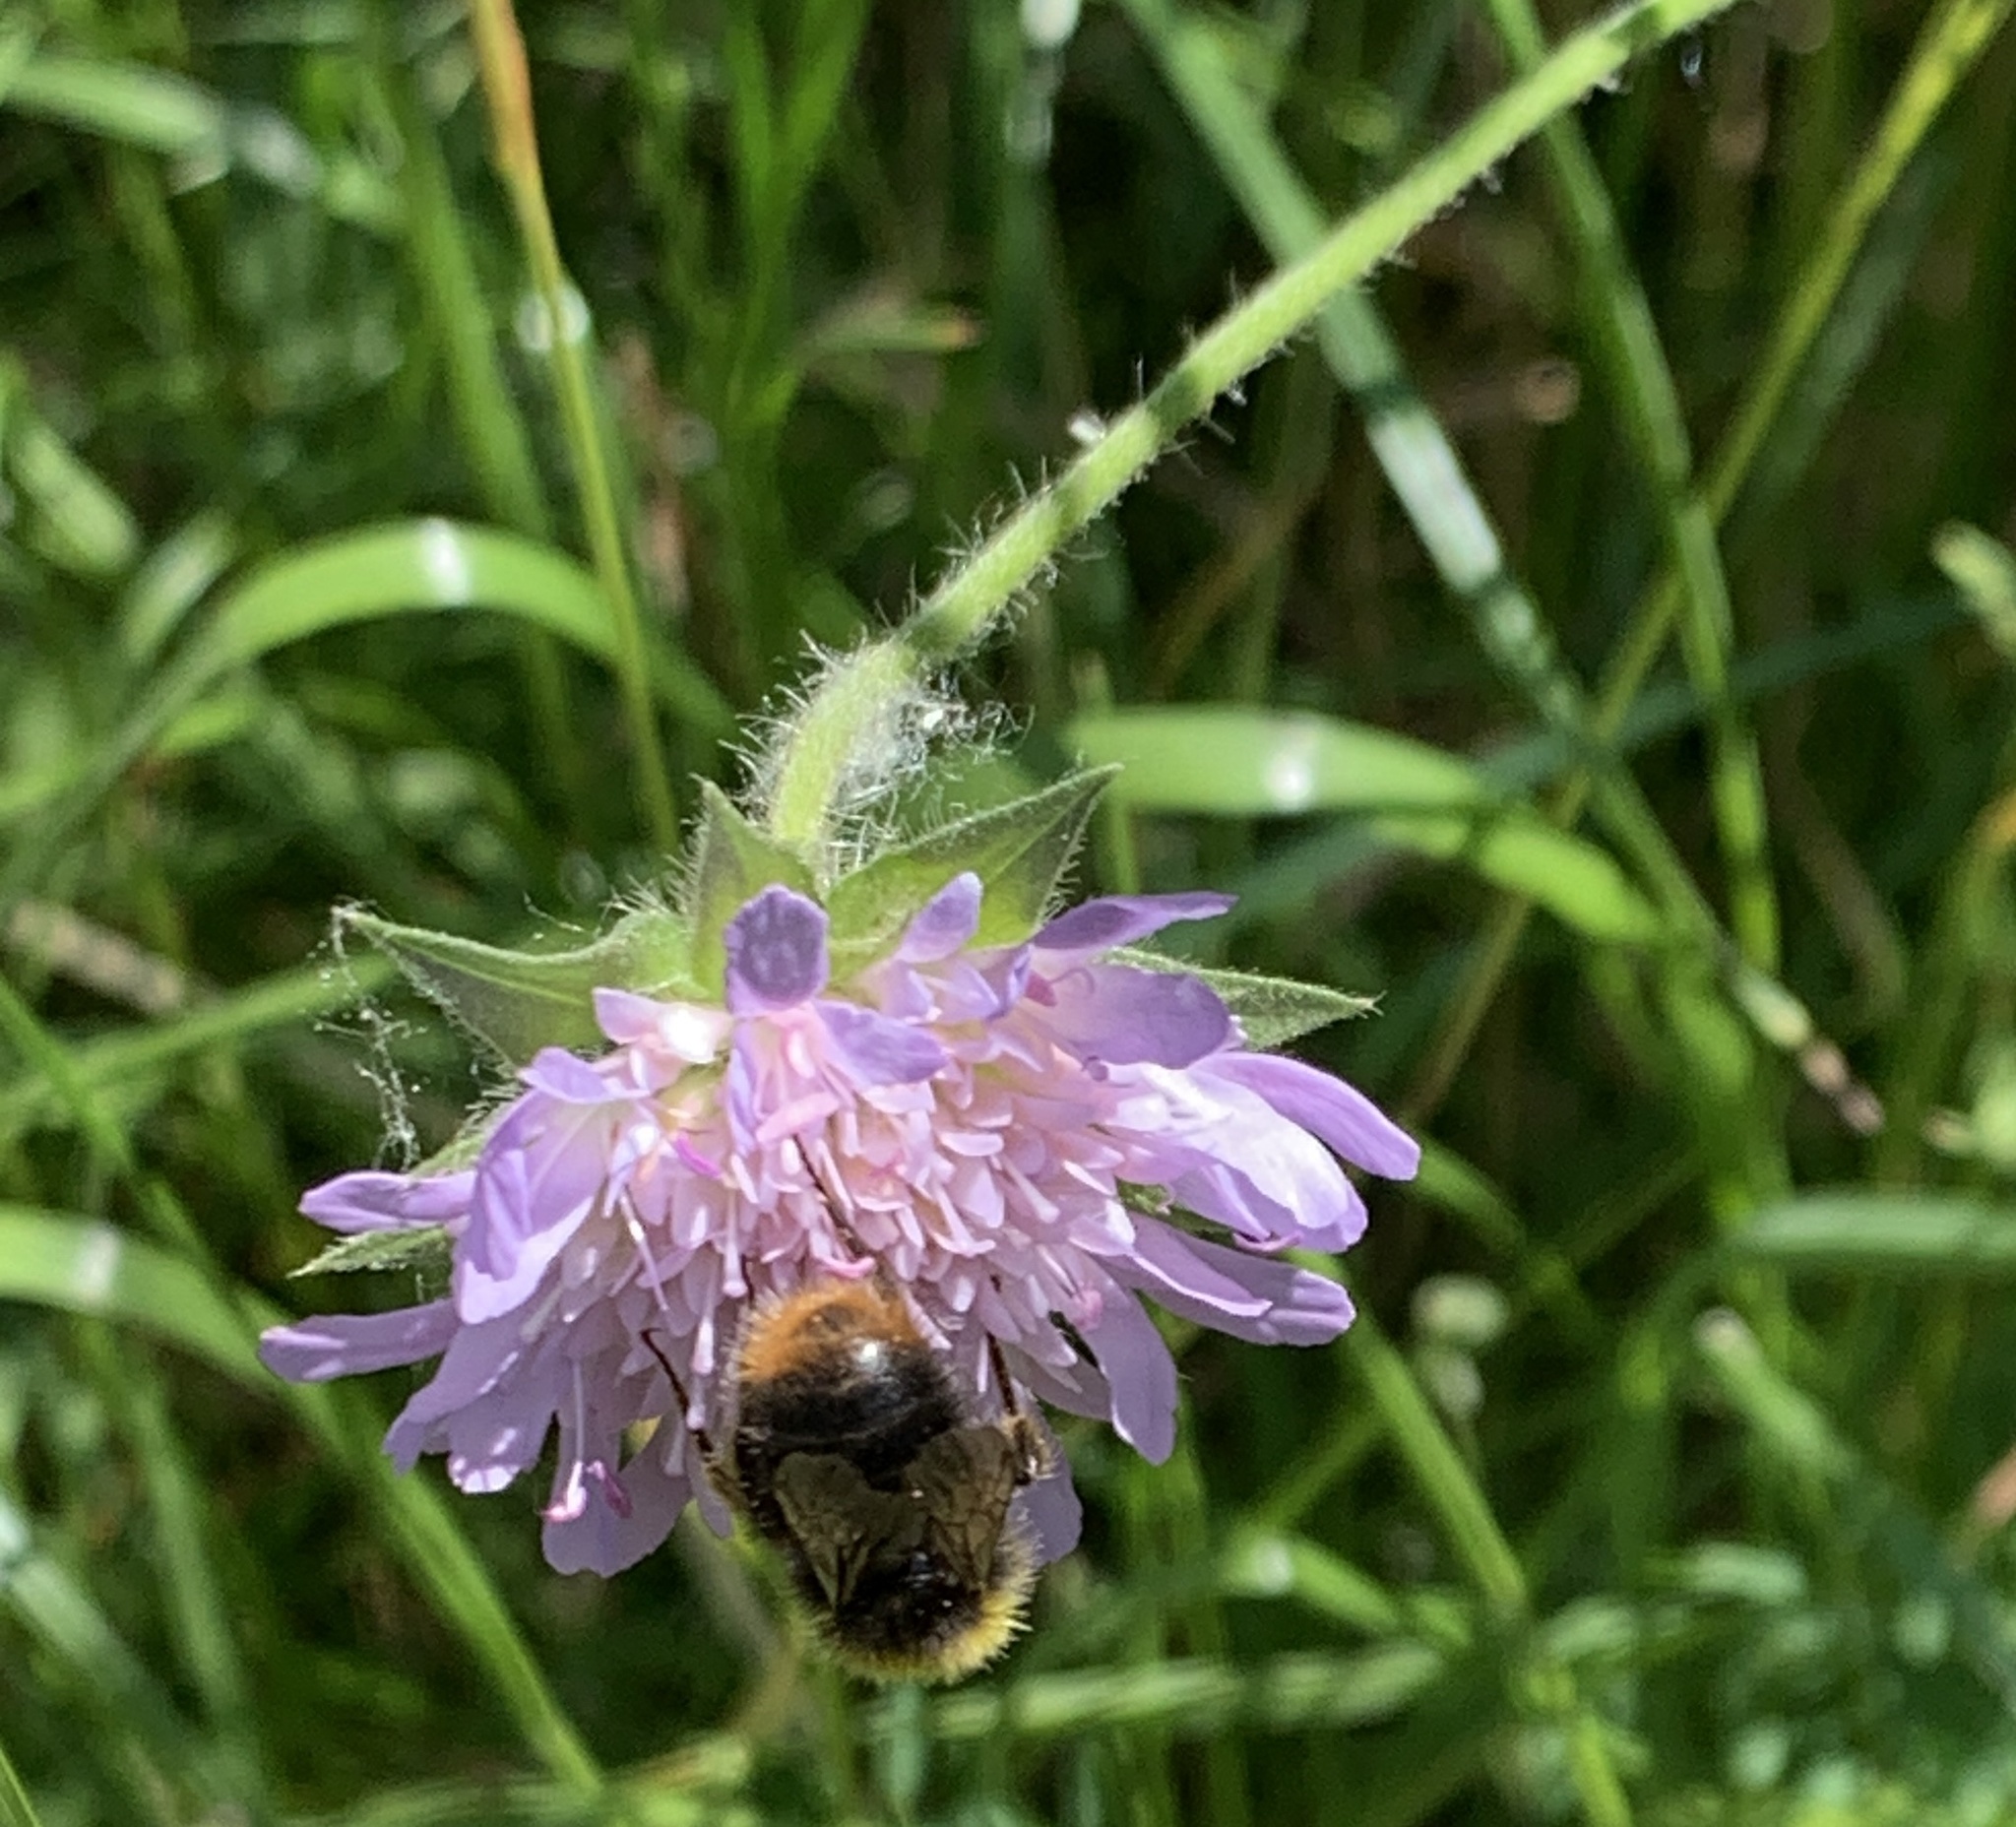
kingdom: Animalia
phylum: Arthropoda
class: Insecta
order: Hymenoptera
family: Apidae
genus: Bombus
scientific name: Bombus pratorum
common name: Early humble-bee
